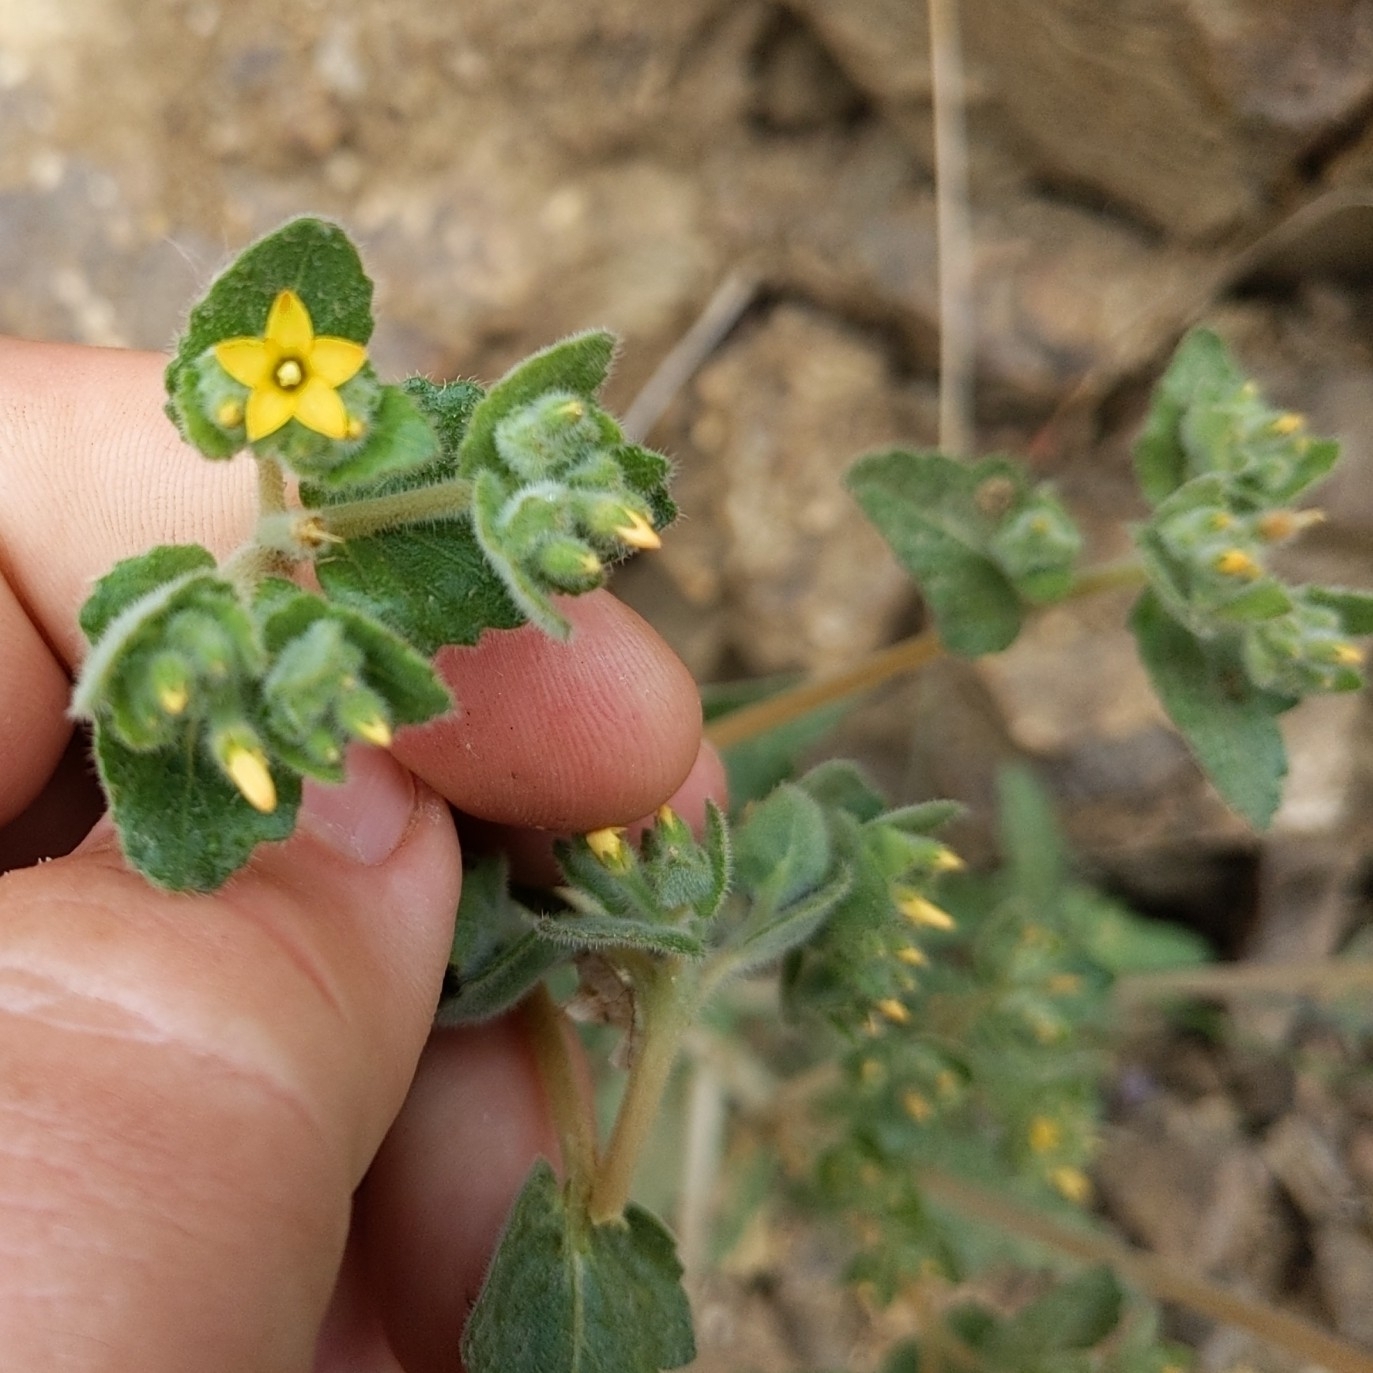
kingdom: Plantae
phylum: Tracheophyta
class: Magnoliopsida
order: Cornales
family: Loasaceae
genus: Mentzelia
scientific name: Mentzelia micrantha
